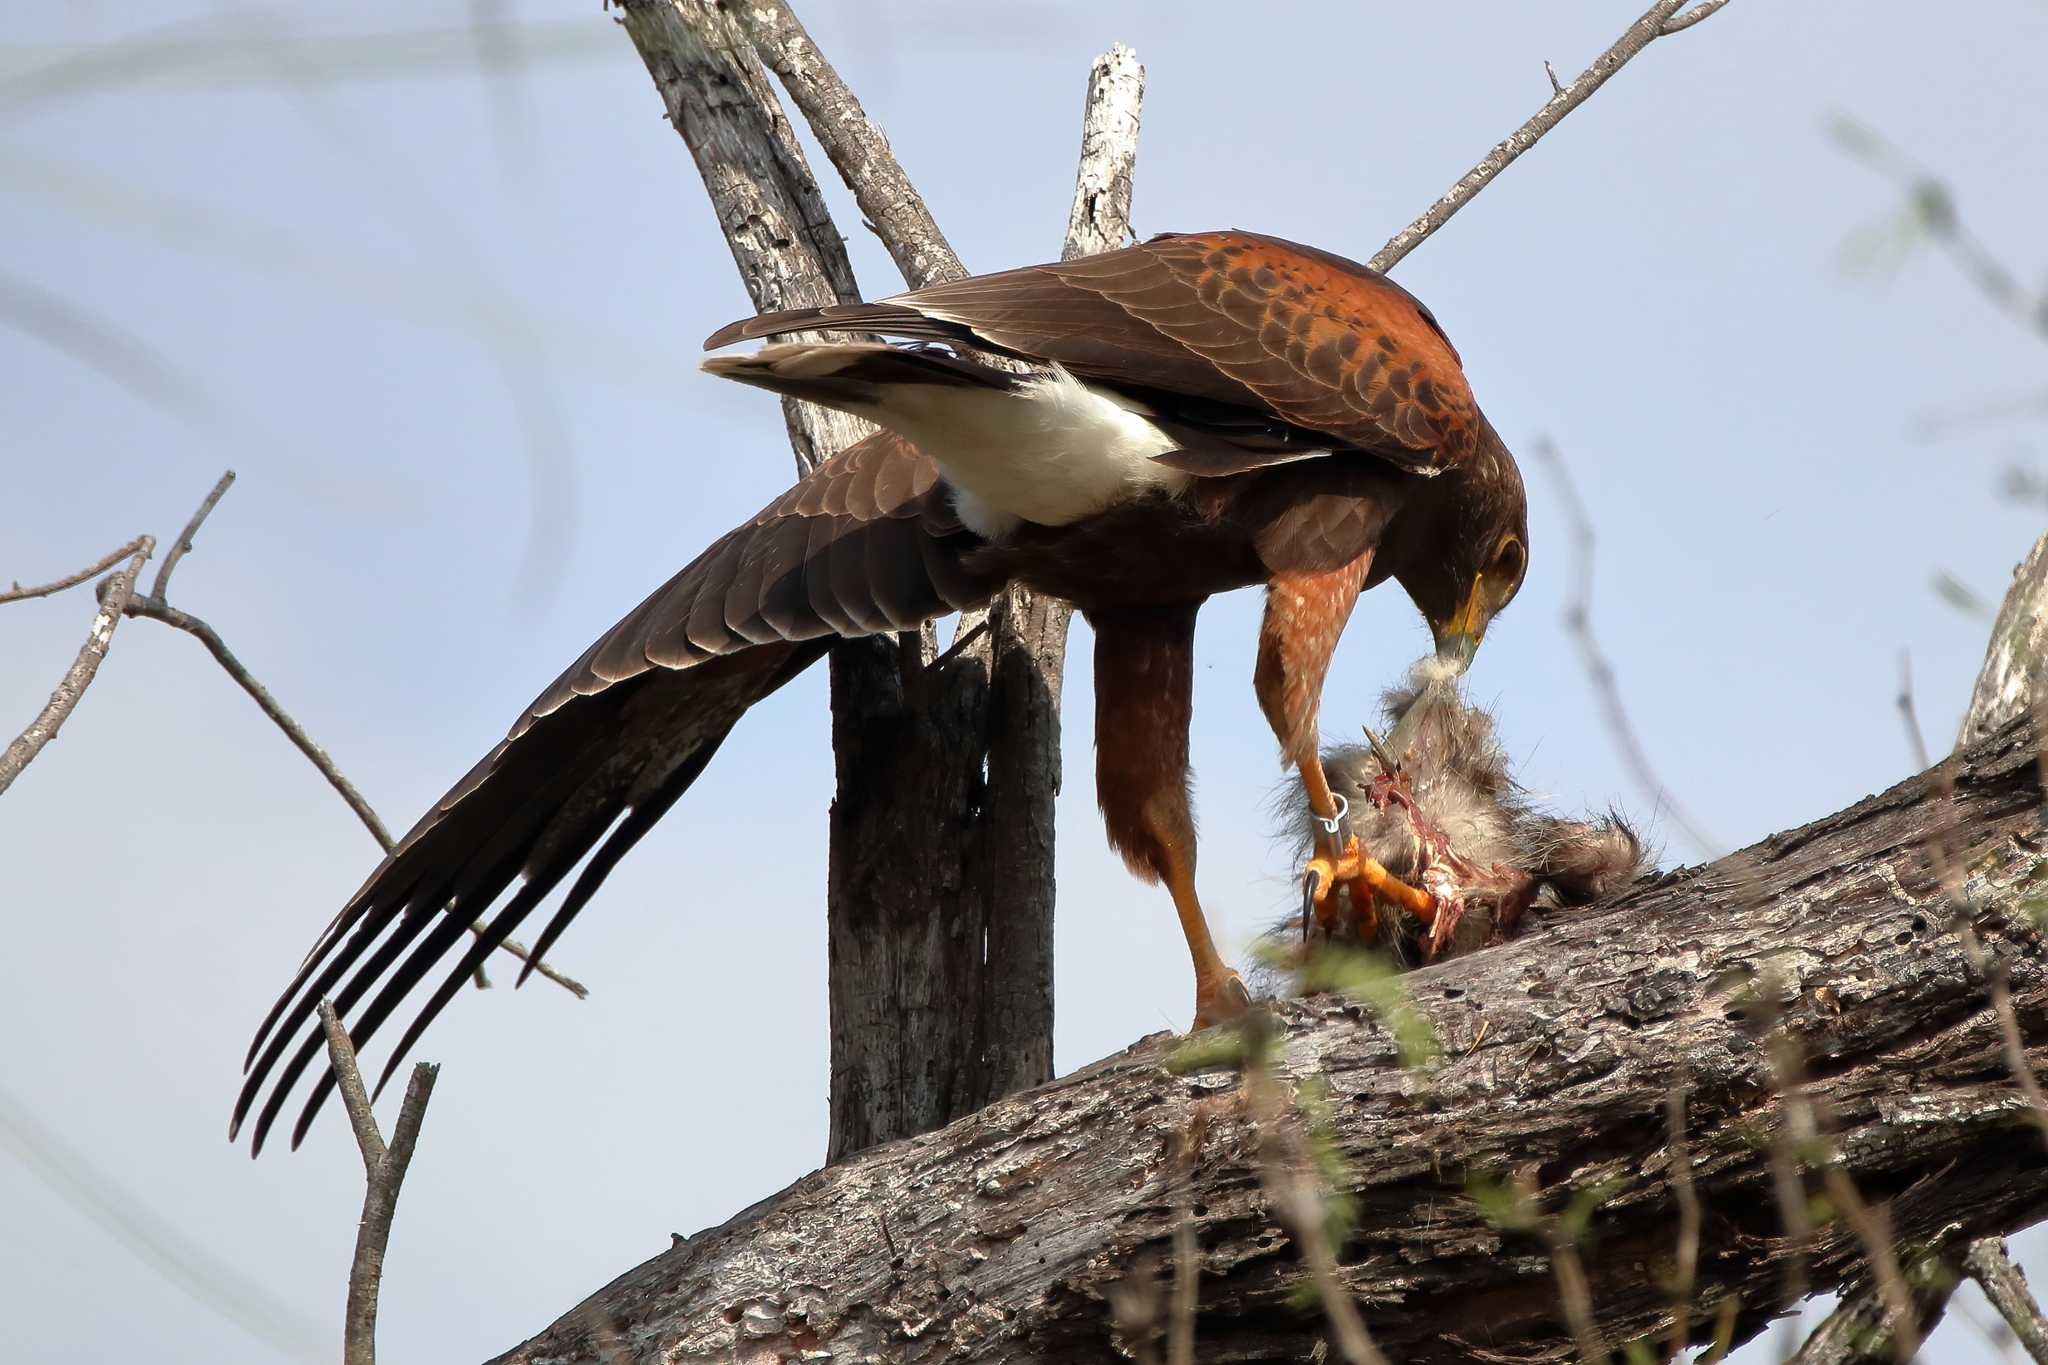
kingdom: Animalia
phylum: Chordata
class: Aves
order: Accipitriformes
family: Accipitridae
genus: Parabuteo
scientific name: Parabuteo unicinctus
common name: Harris's hawk
